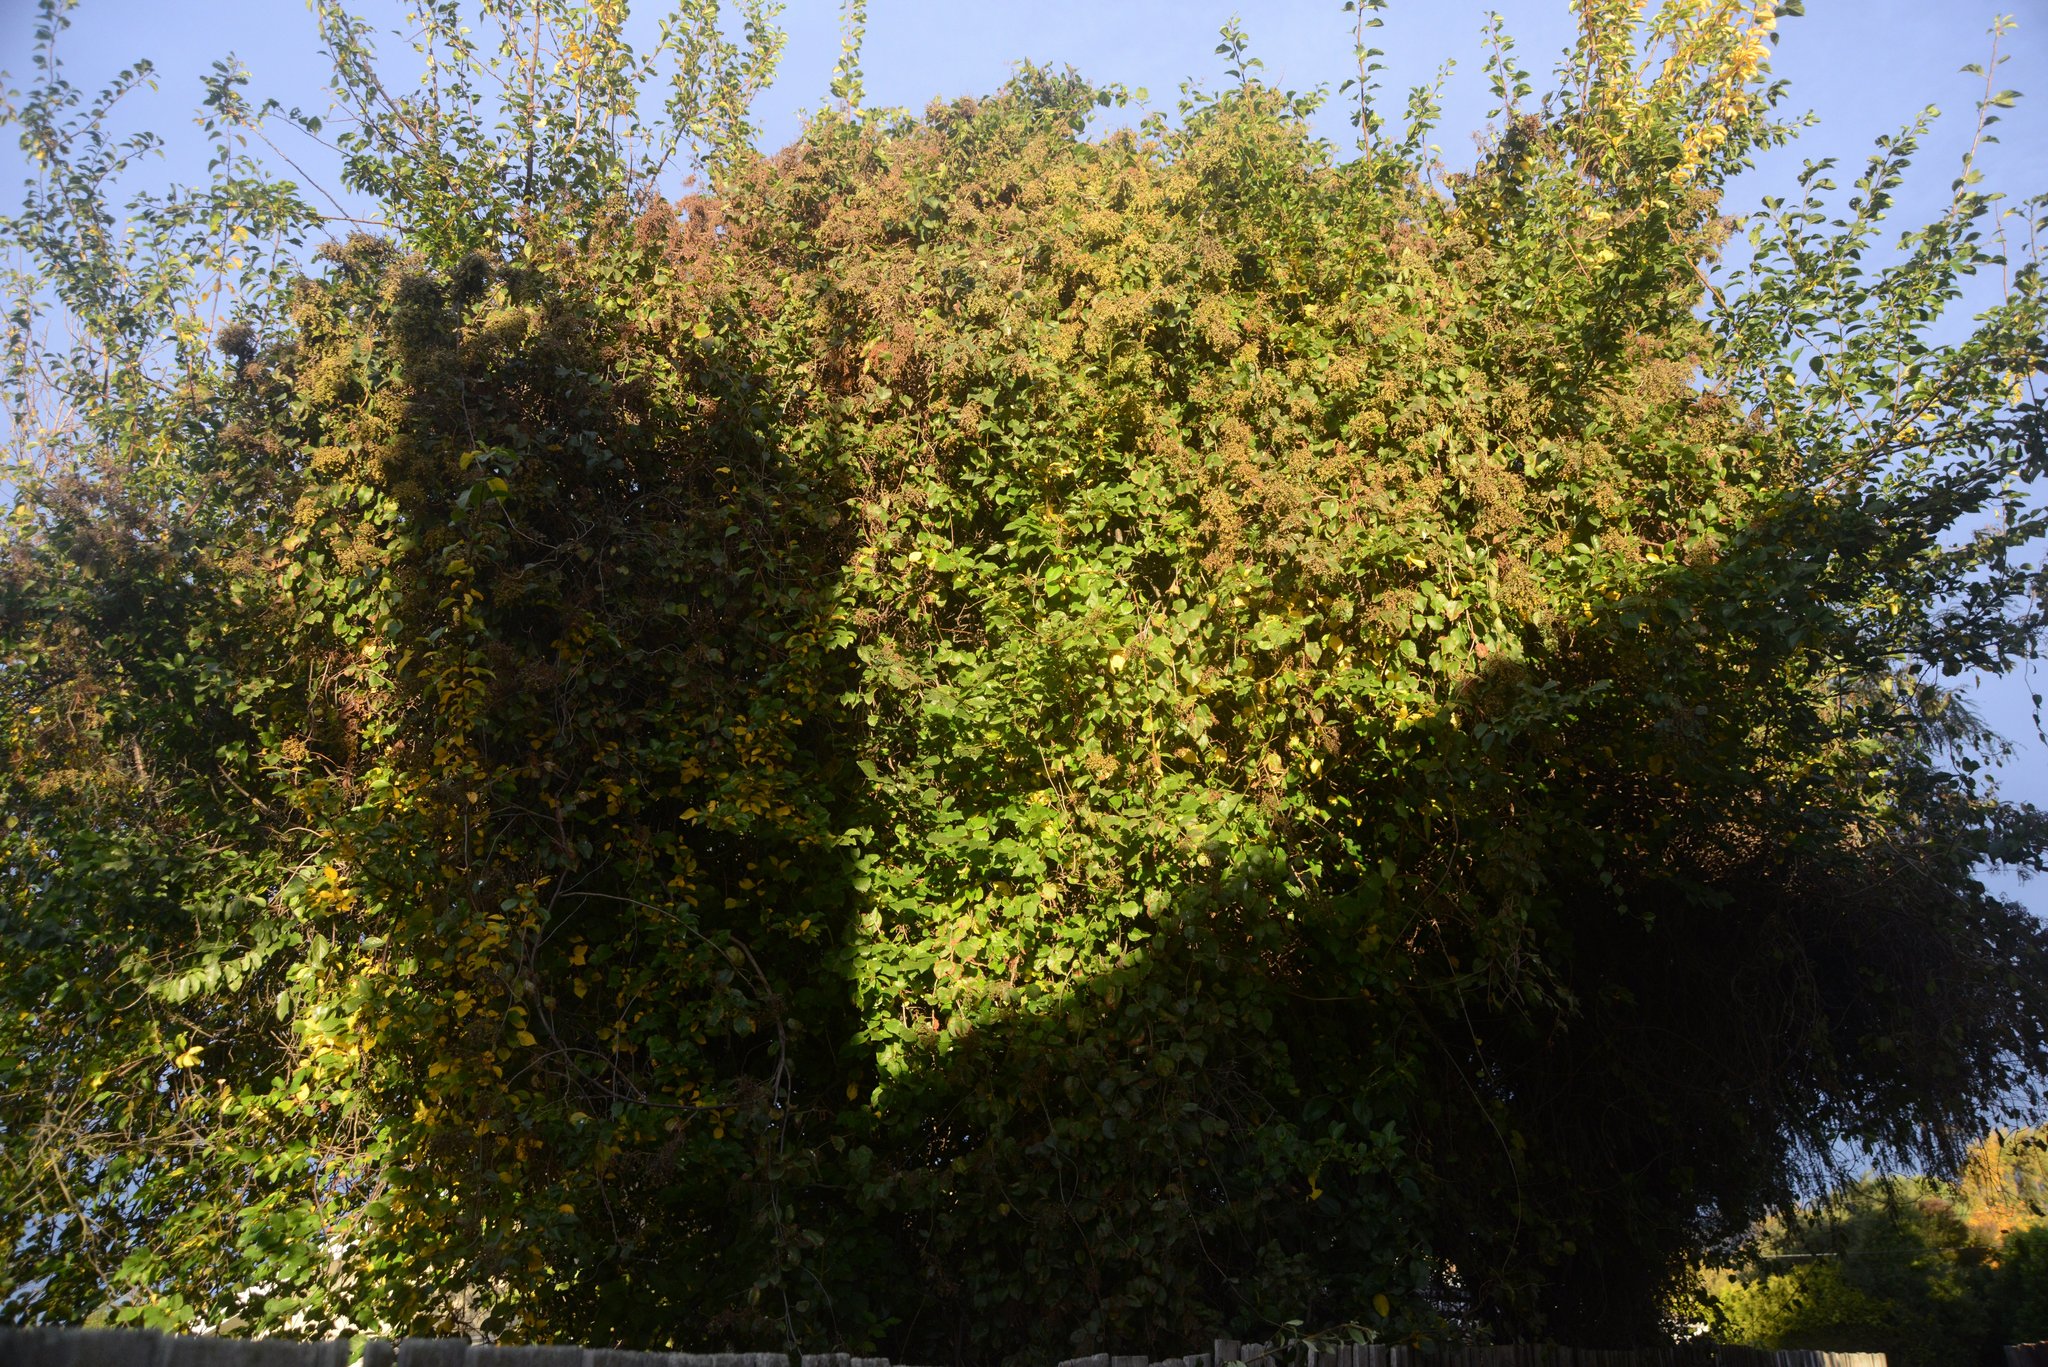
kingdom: Plantae
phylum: Tracheophyta
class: Magnoliopsida
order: Caryophyllales
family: Polygonaceae
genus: Muehlenbeckia
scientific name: Muehlenbeckia australis
